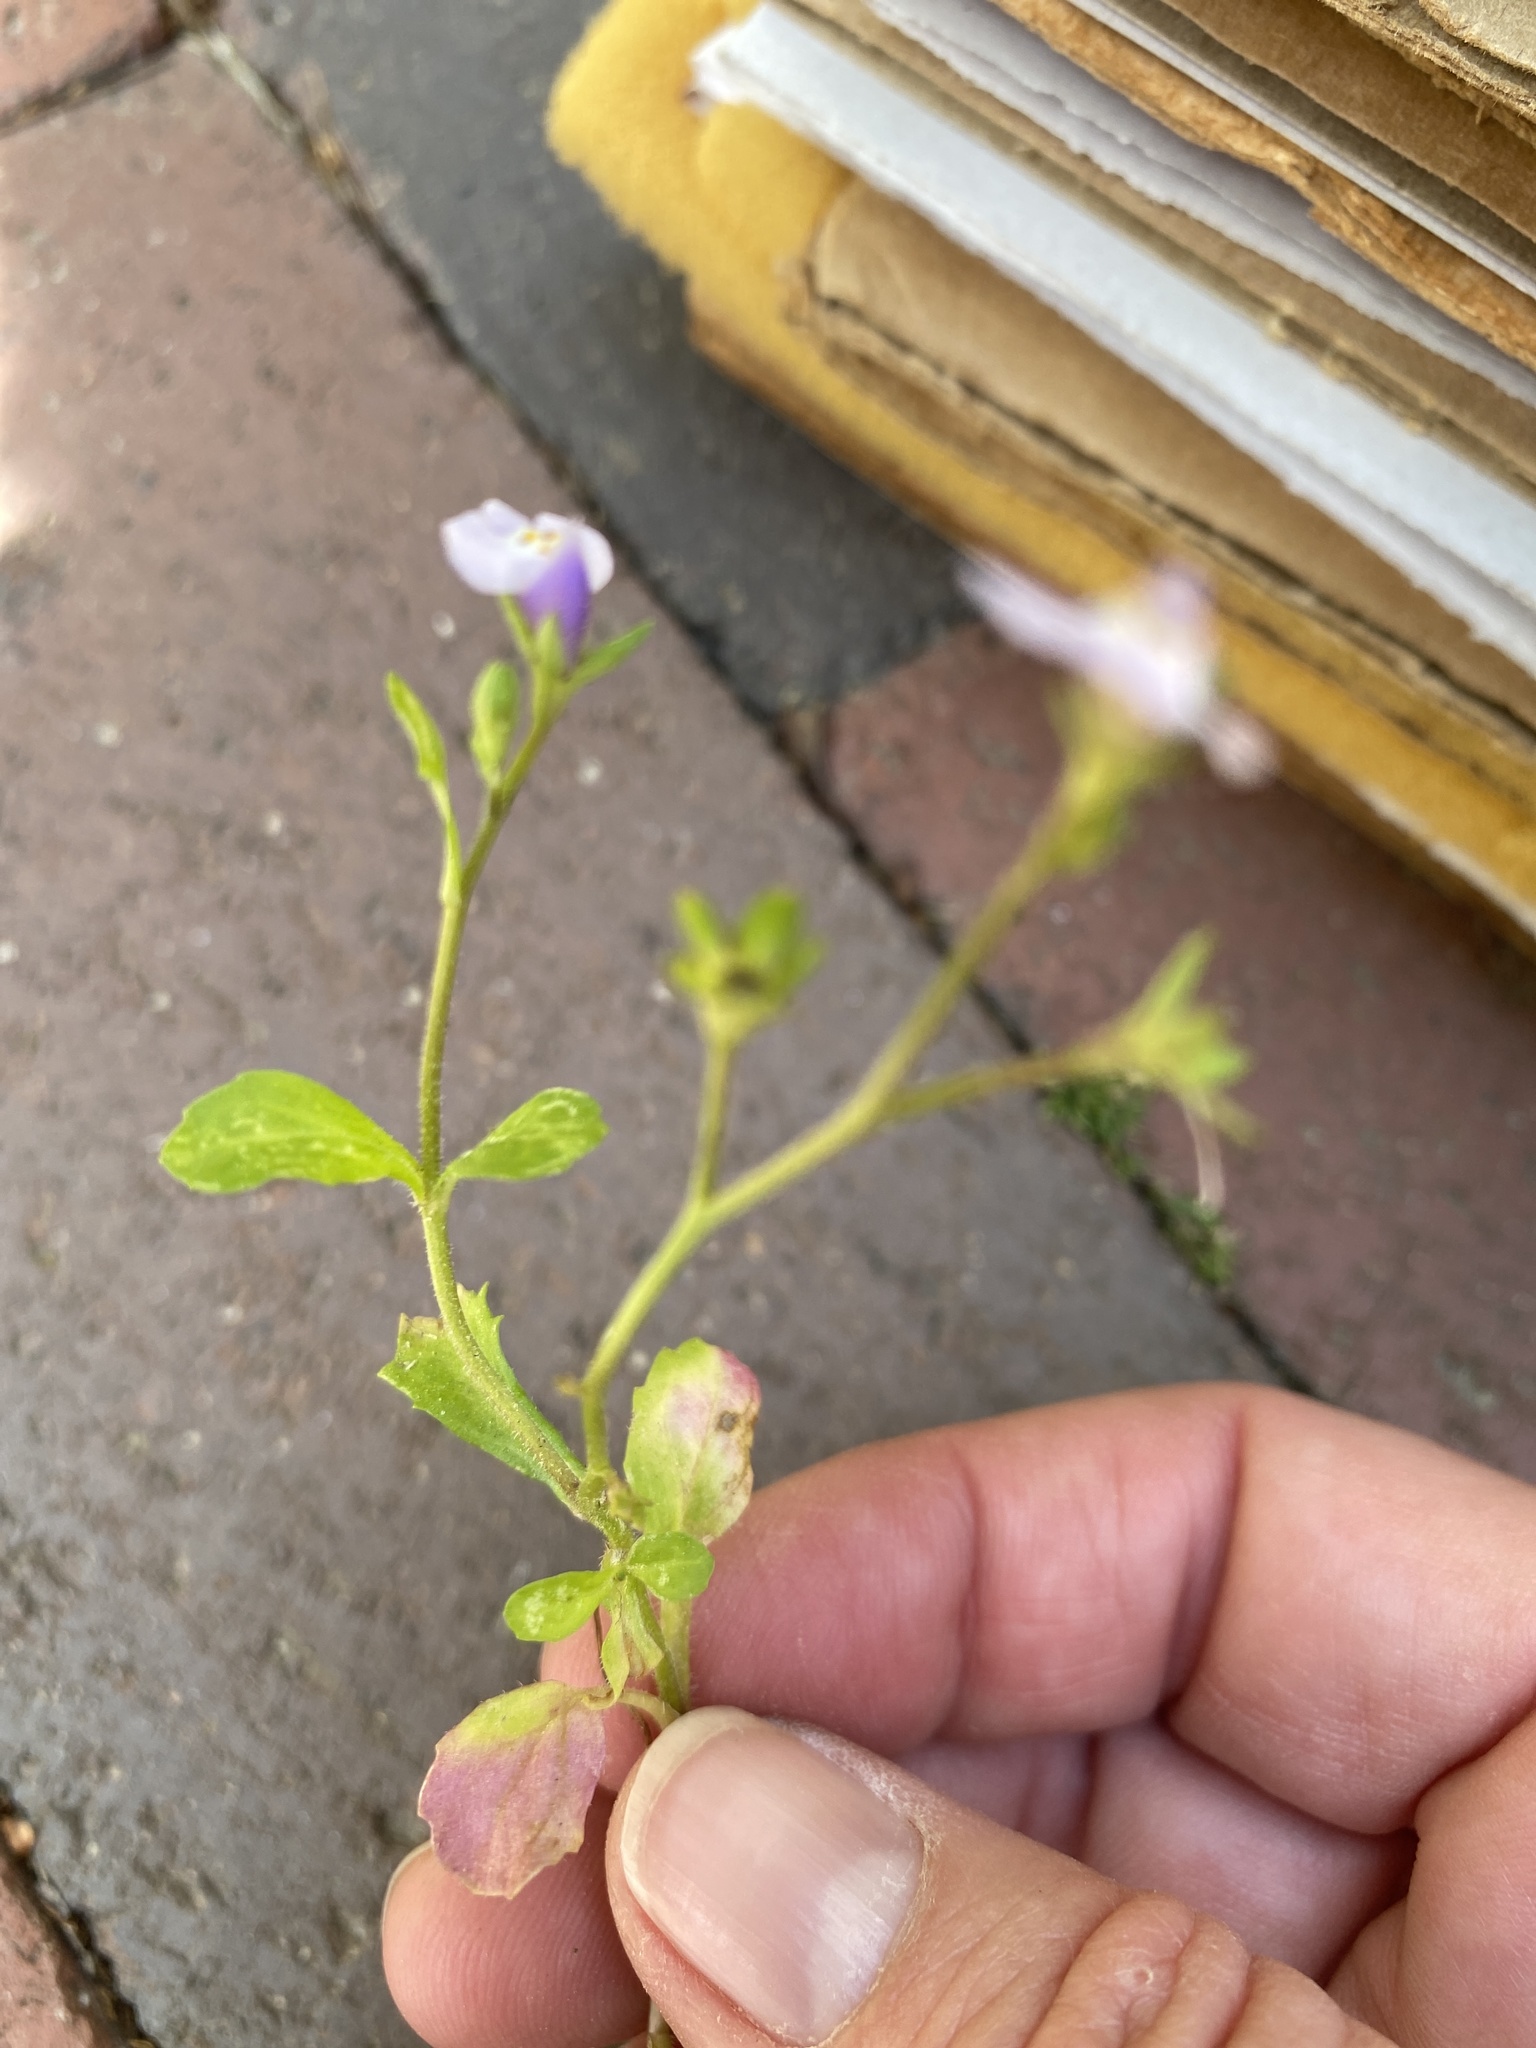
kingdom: Plantae
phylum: Tracheophyta
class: Magnoliopsida
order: Lamiales
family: Mazaceae
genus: Mazus
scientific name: Mazus pumilus
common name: Japanese mazus
